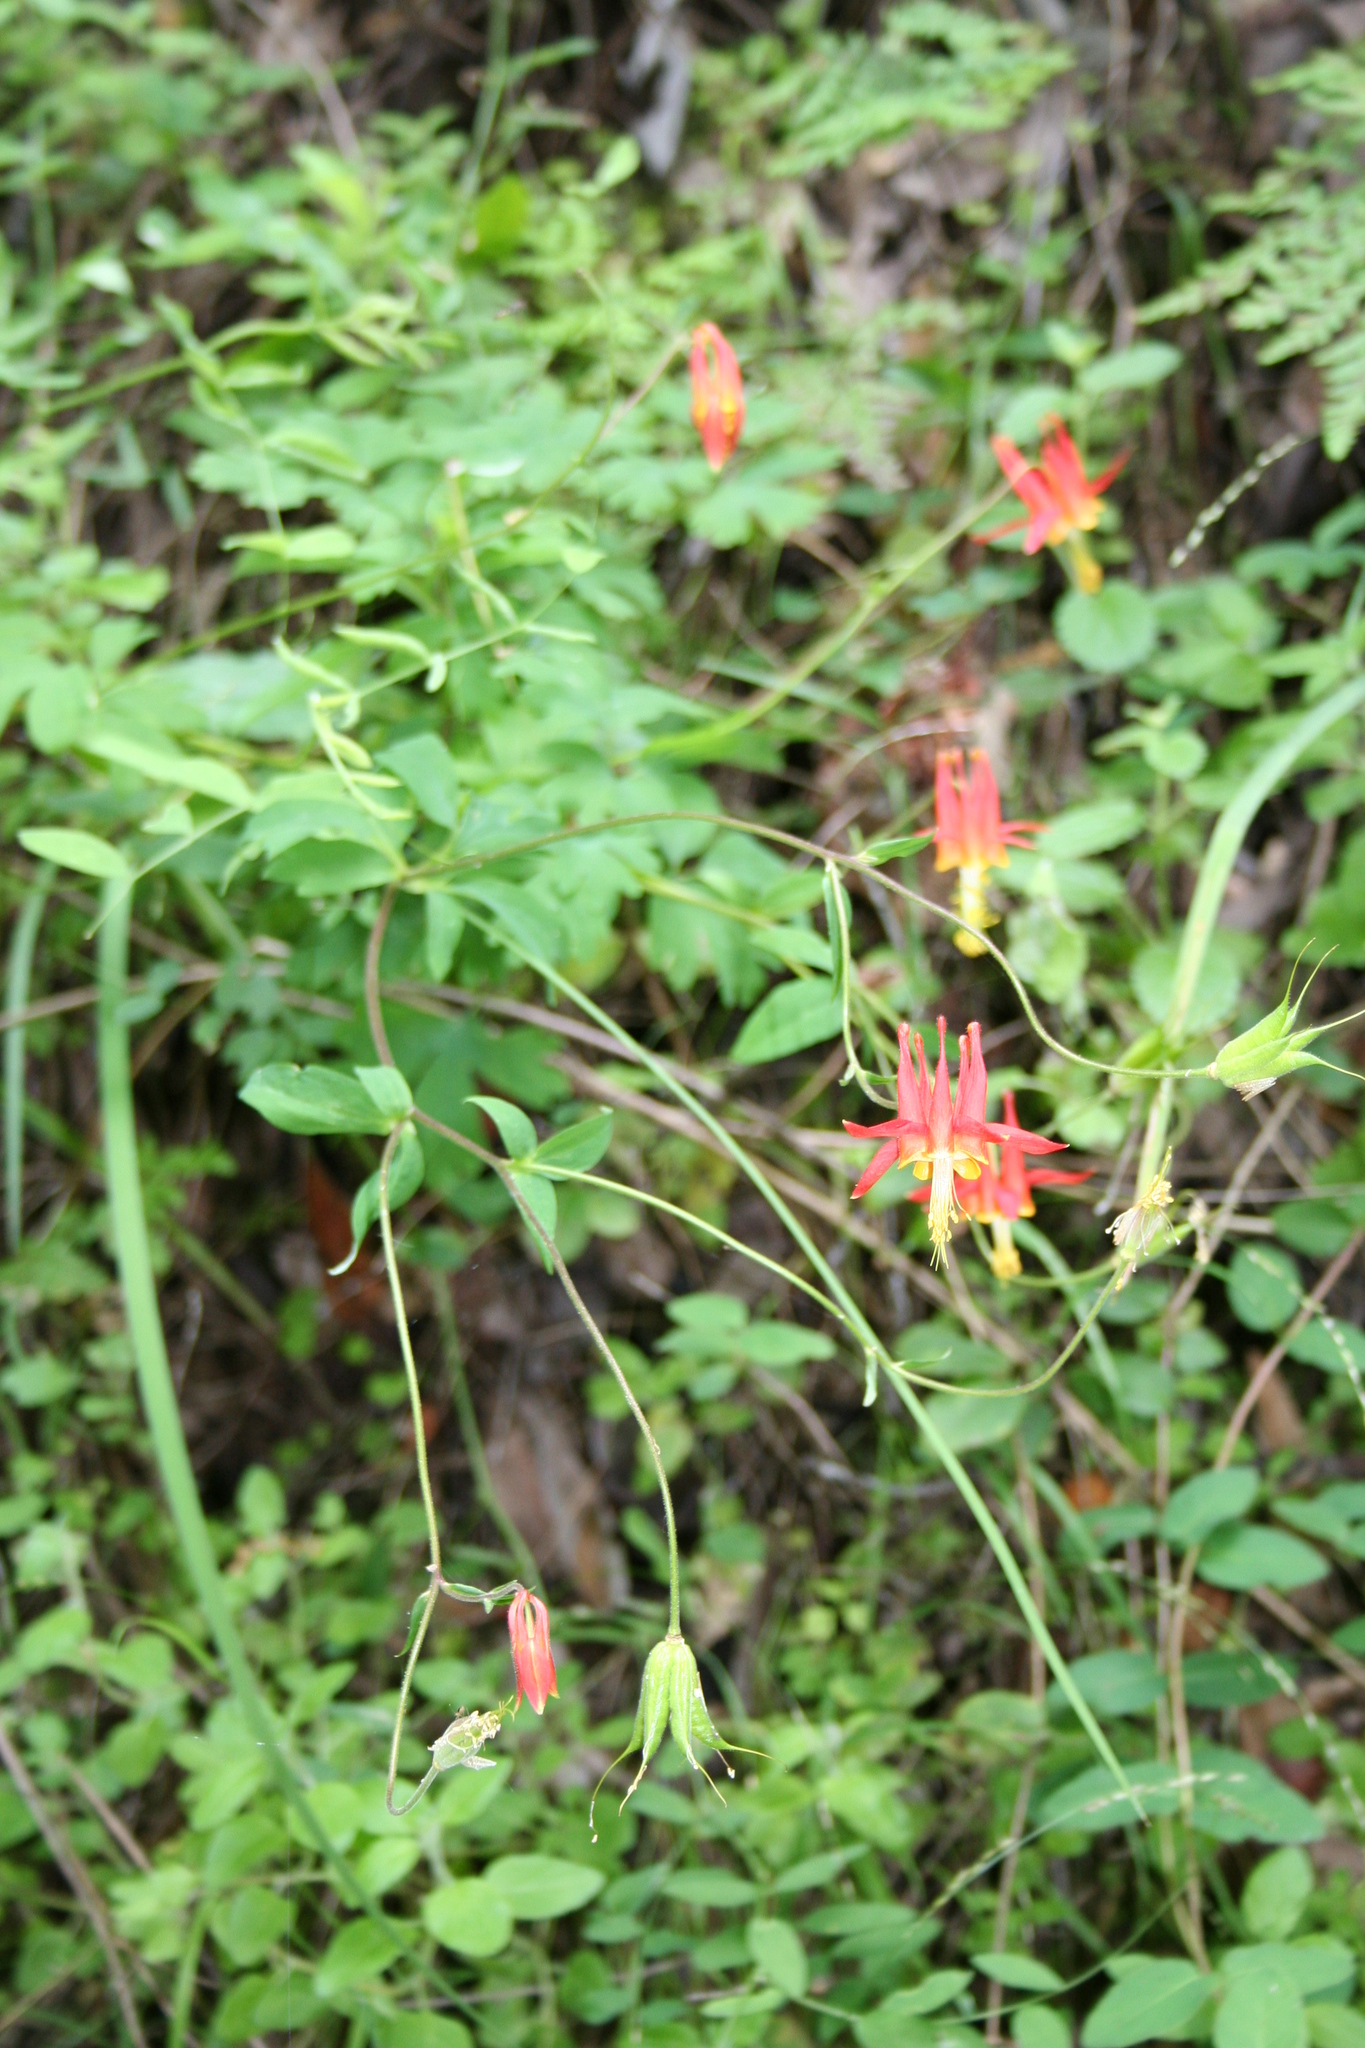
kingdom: Plantae
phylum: Tracheophyta
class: Magnoliopsida
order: Ranunculales
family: Ranunculaceae
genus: Aquilegia
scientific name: Aquilegia formosa
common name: Sitka columbine
